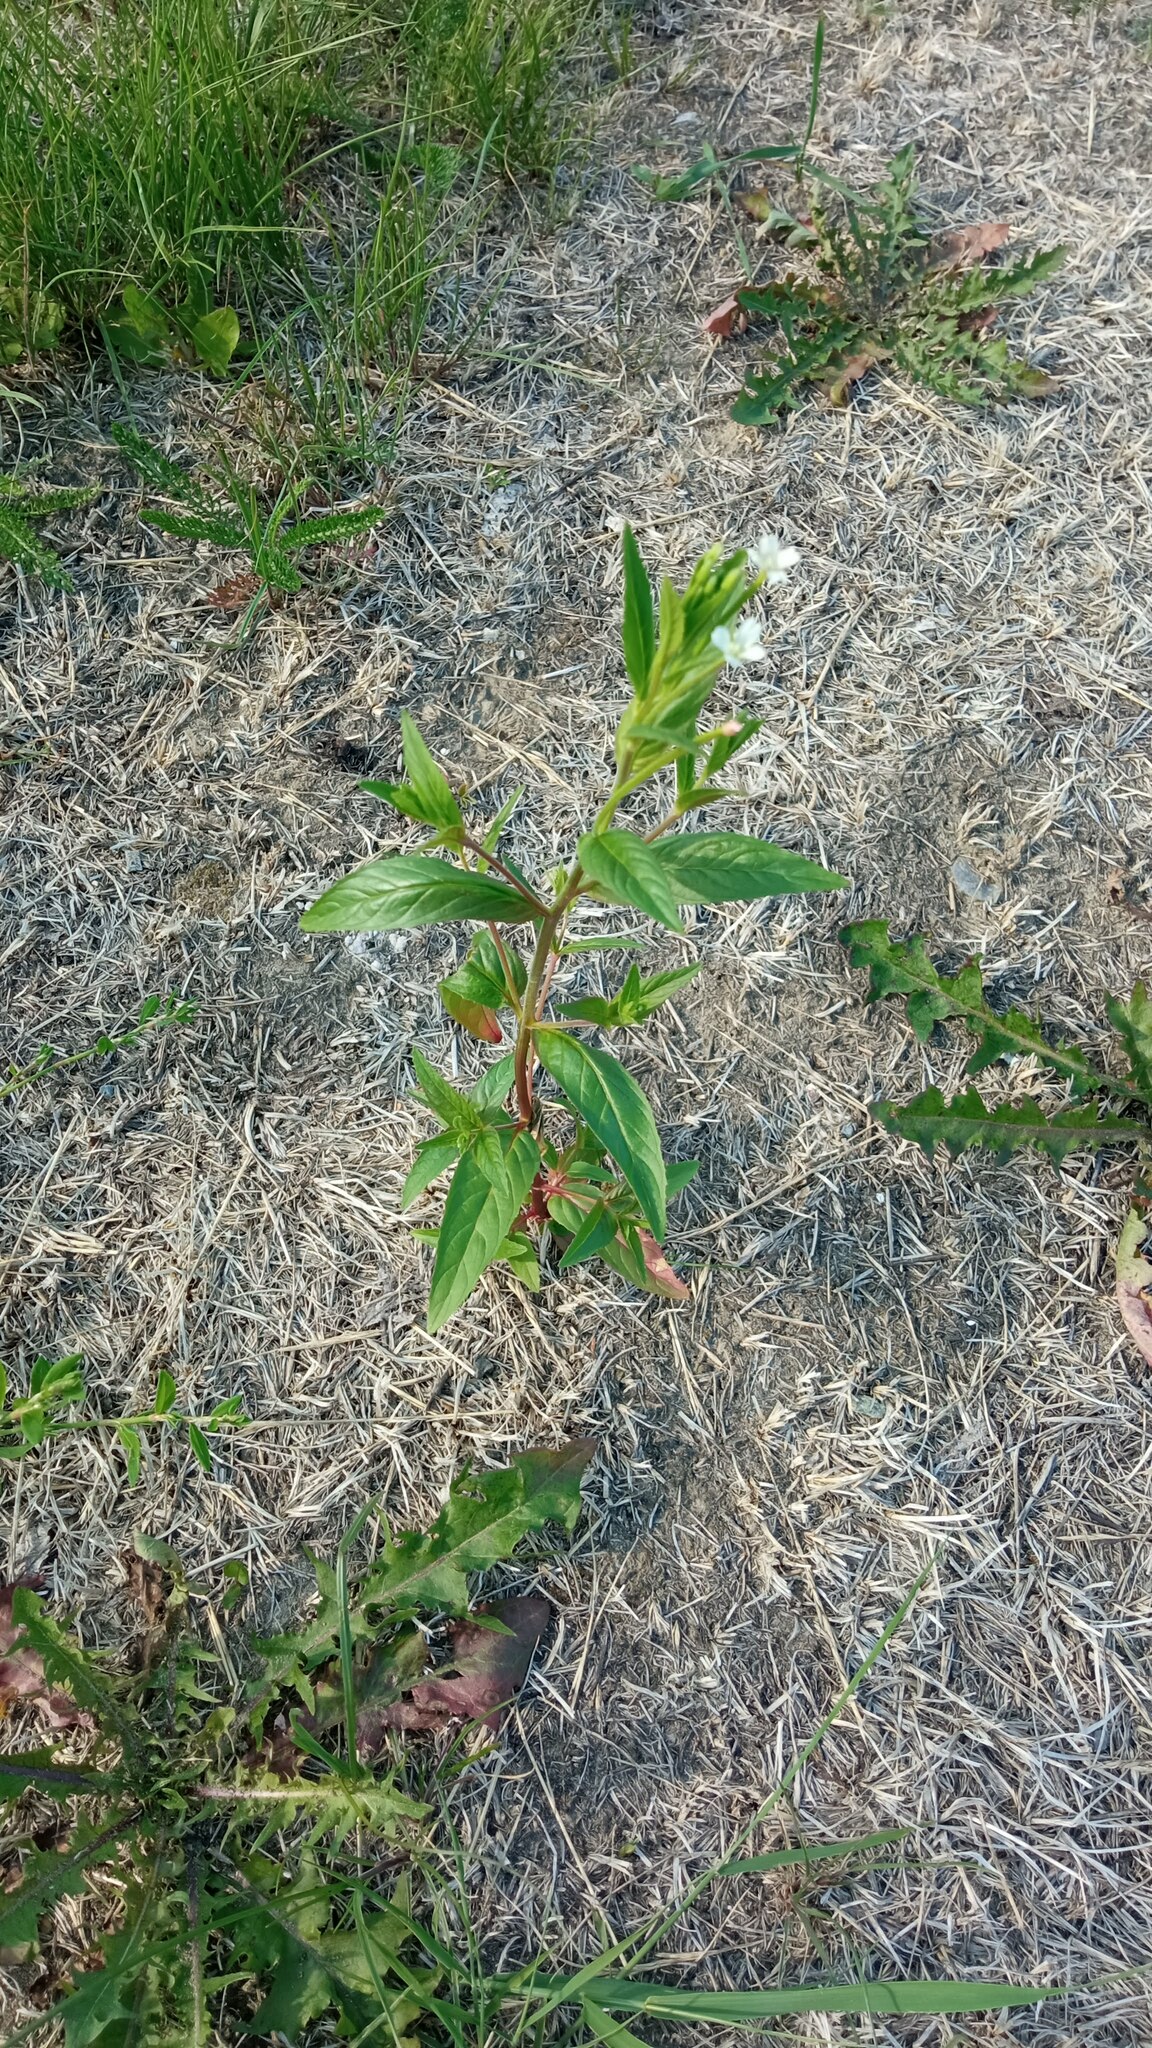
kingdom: Plantae
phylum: Tracheophyta
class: Magnoliopsida
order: Myrtales
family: Onagraceae
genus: Epilobium
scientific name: Epilobium pseudorubescens
